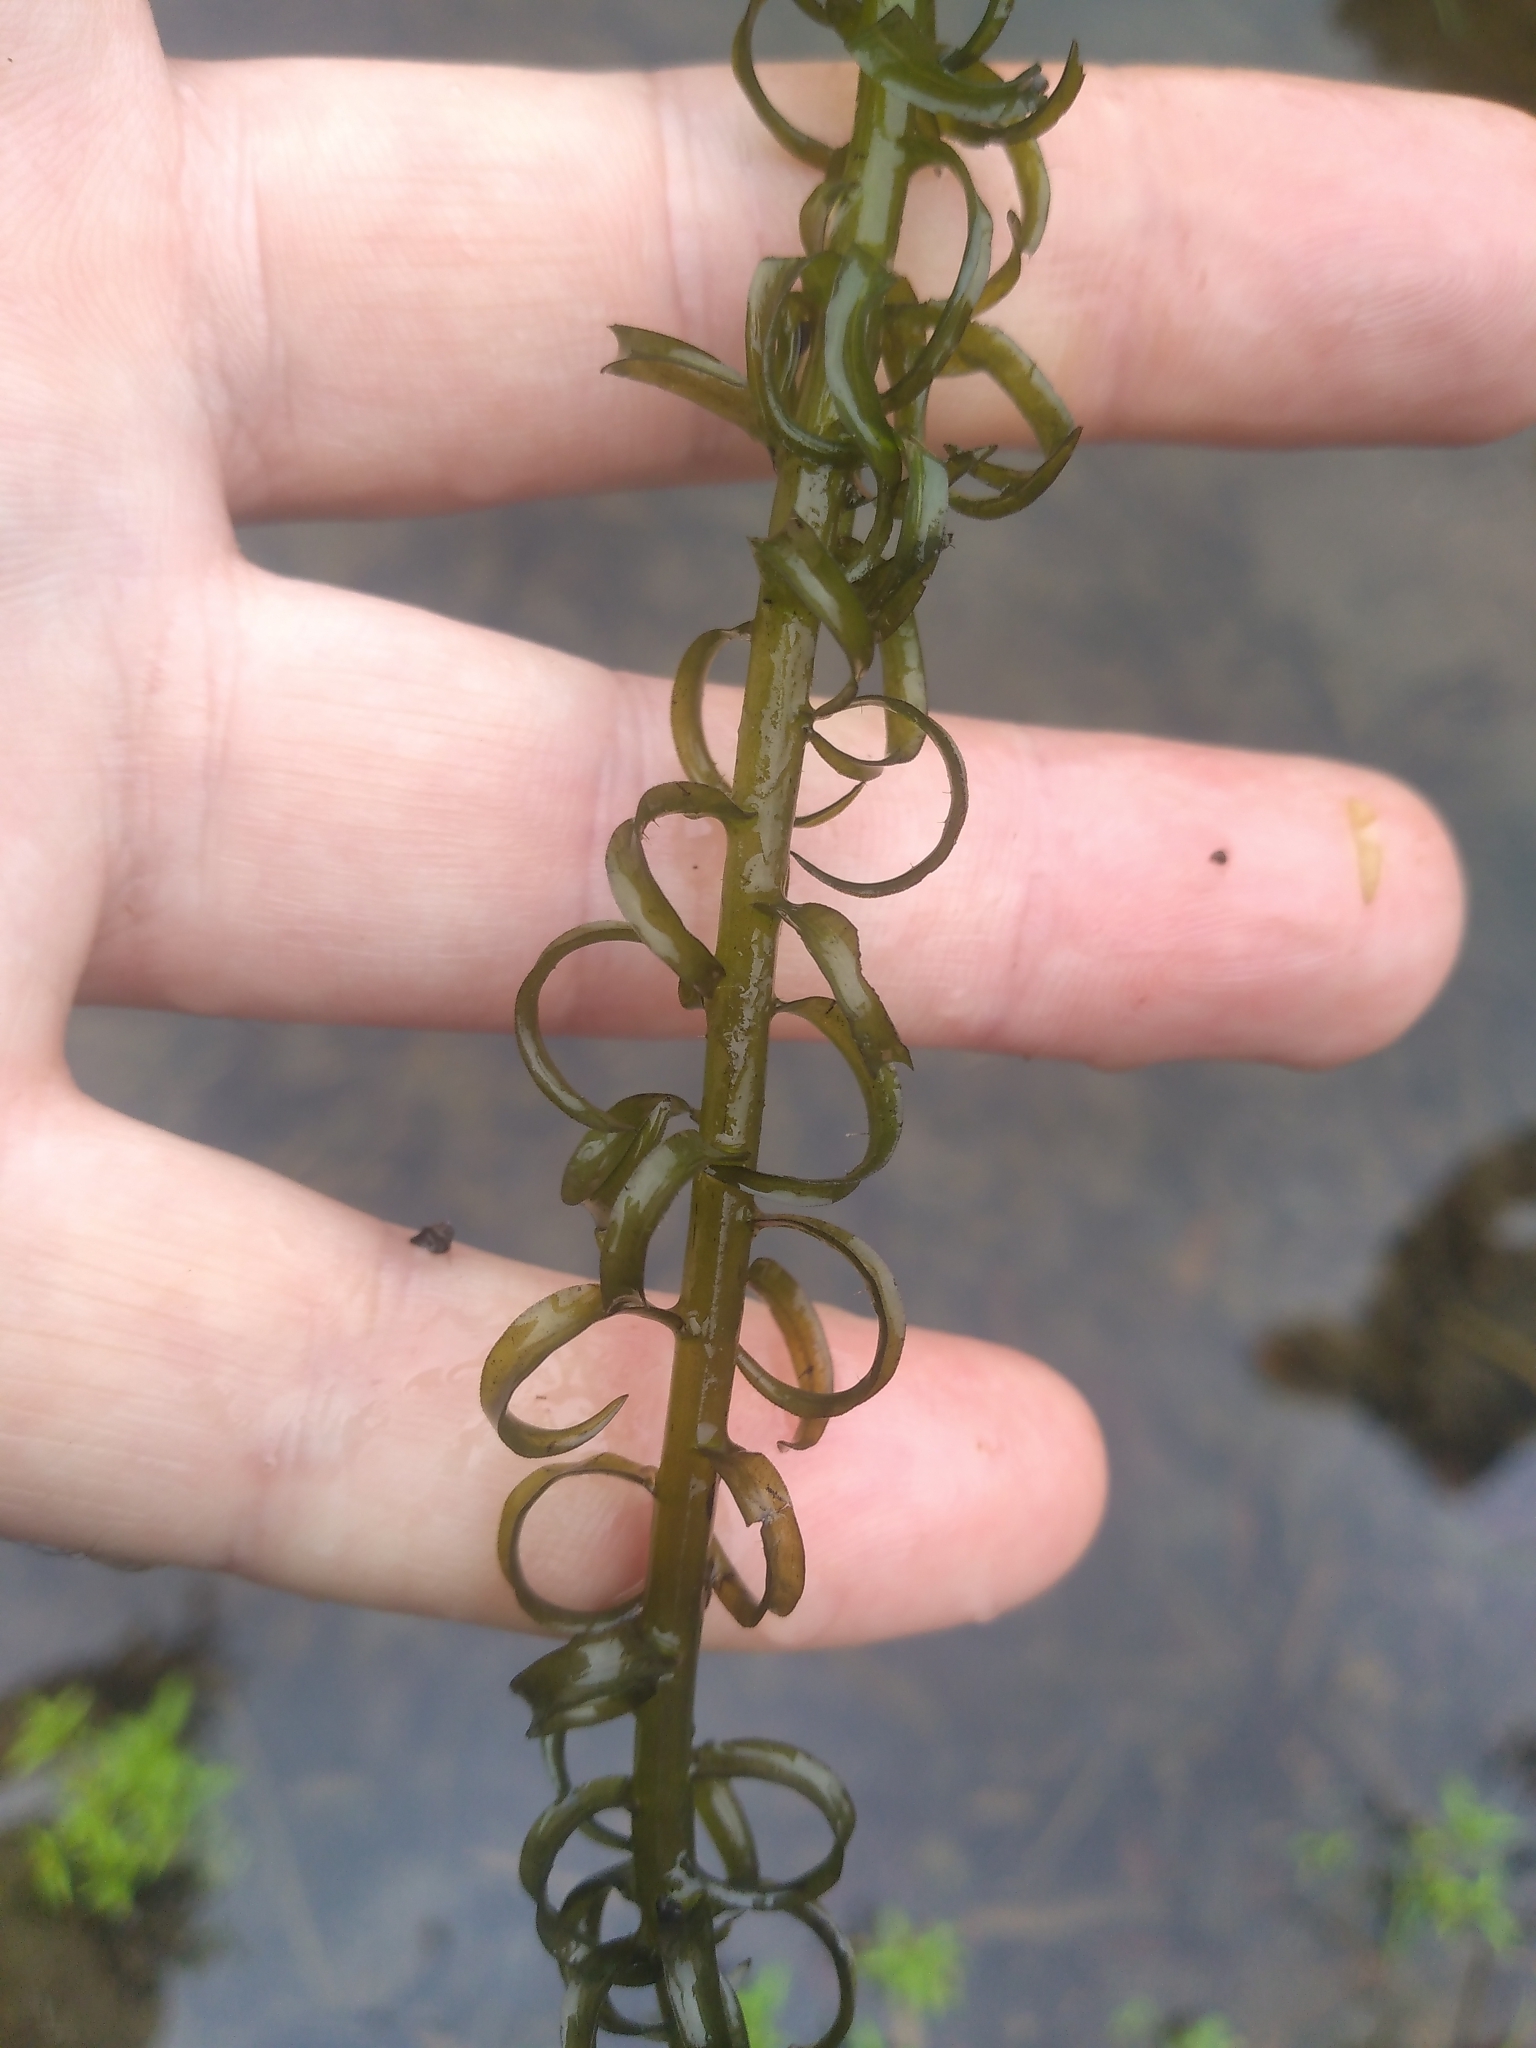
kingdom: Plantae
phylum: Tracheophyta
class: Liliopsida
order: Alismatales
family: Hydrocharitaceae
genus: Lagarosiphon
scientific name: Lagarosiphon major
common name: Curly waterweed
